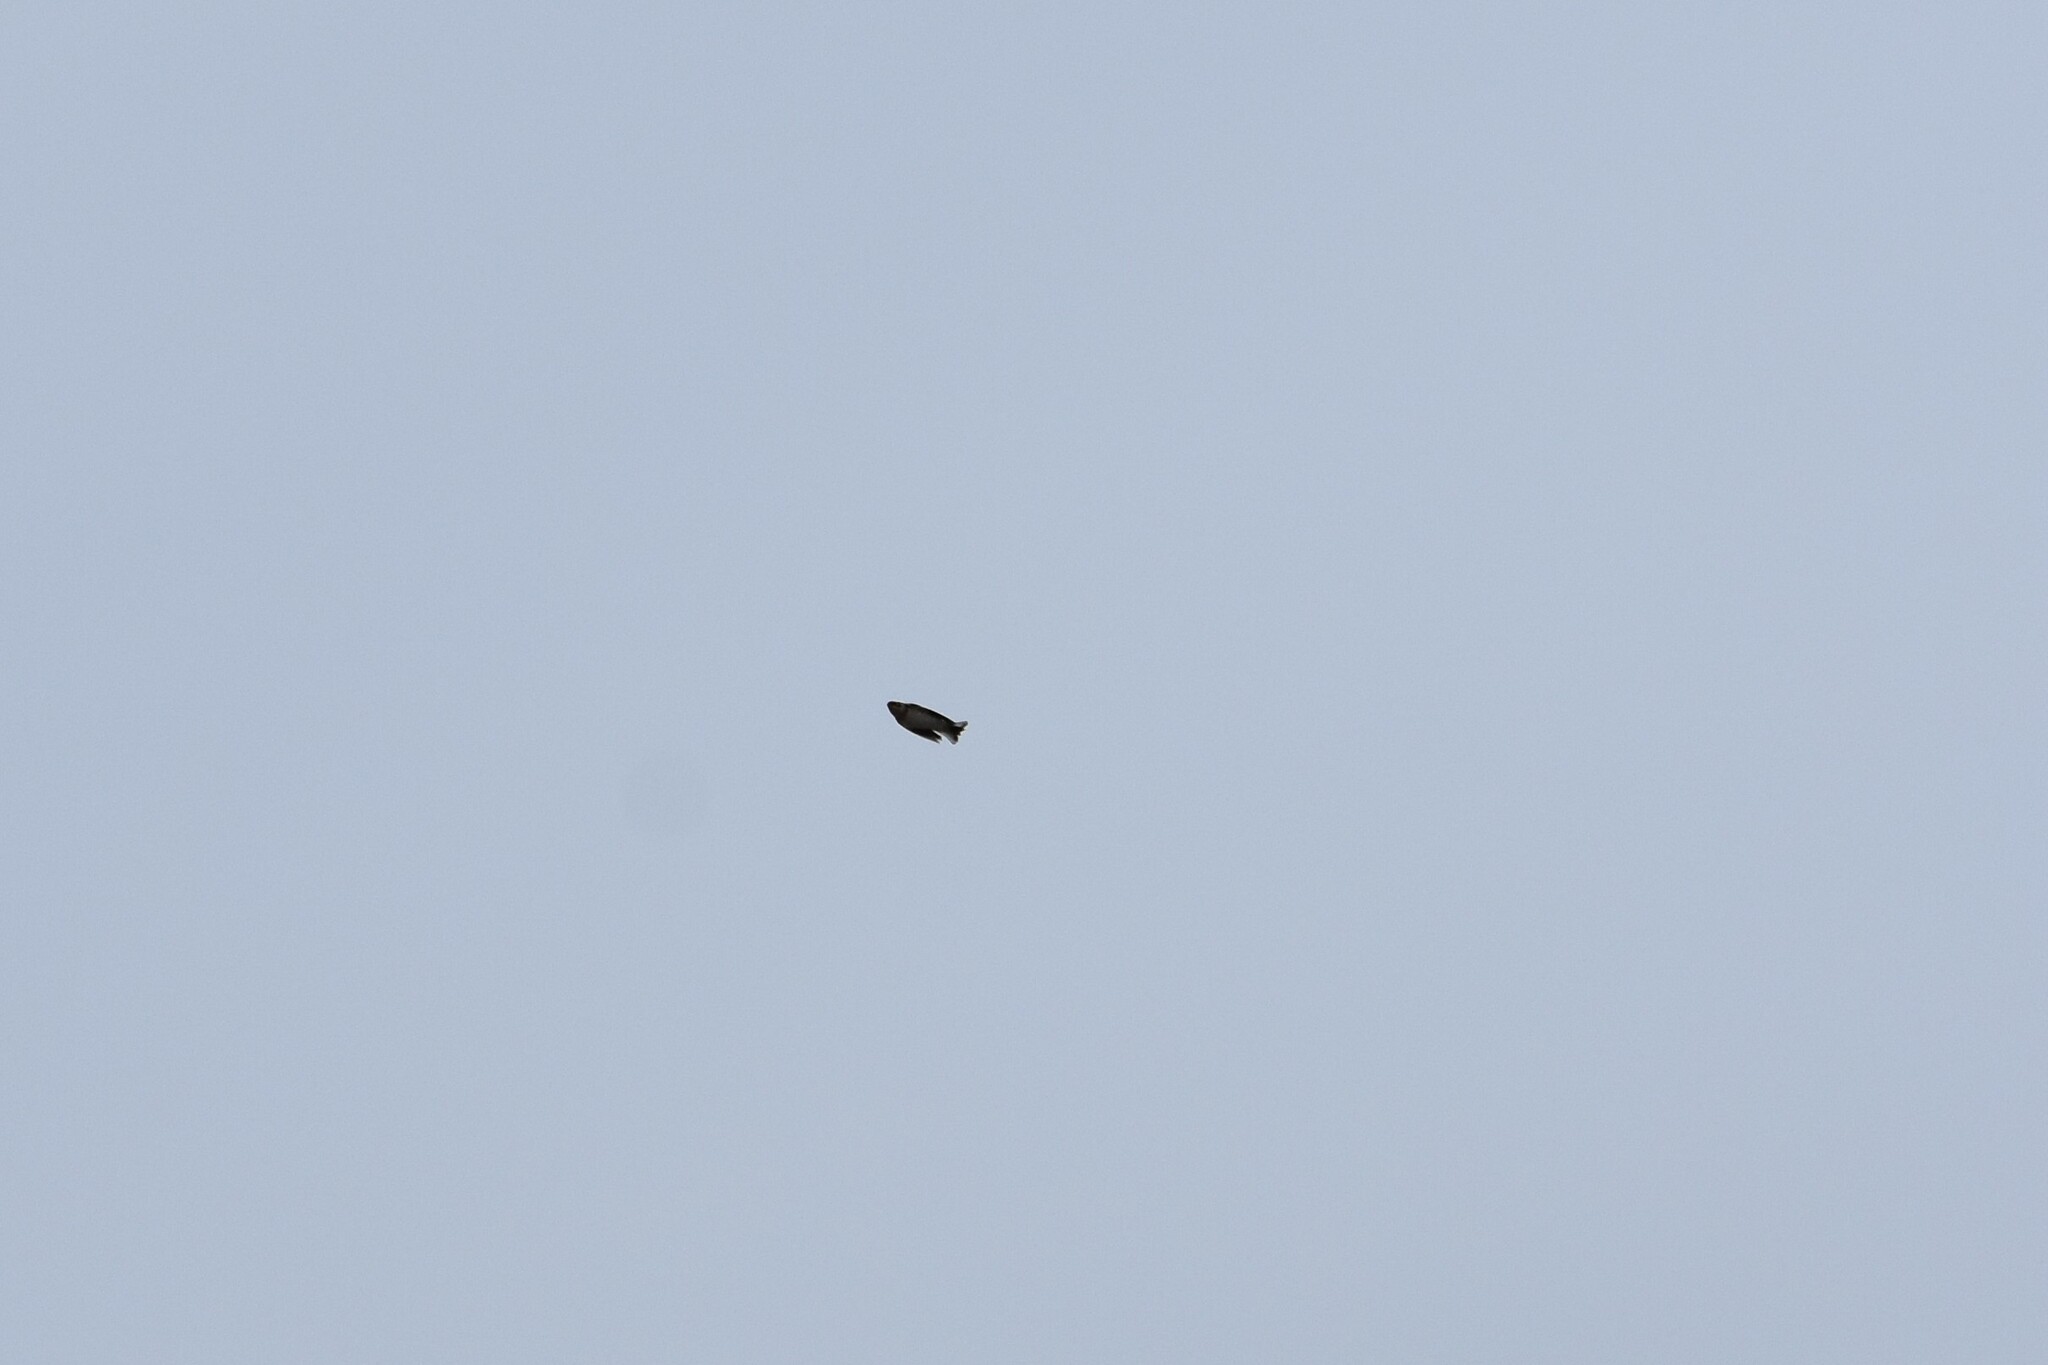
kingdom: Animalia
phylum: Chordata
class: Aves
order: Passeriformes
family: Calcariidae
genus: Plectrophenax
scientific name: Plectrophenax nivalis
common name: Snow bunting
